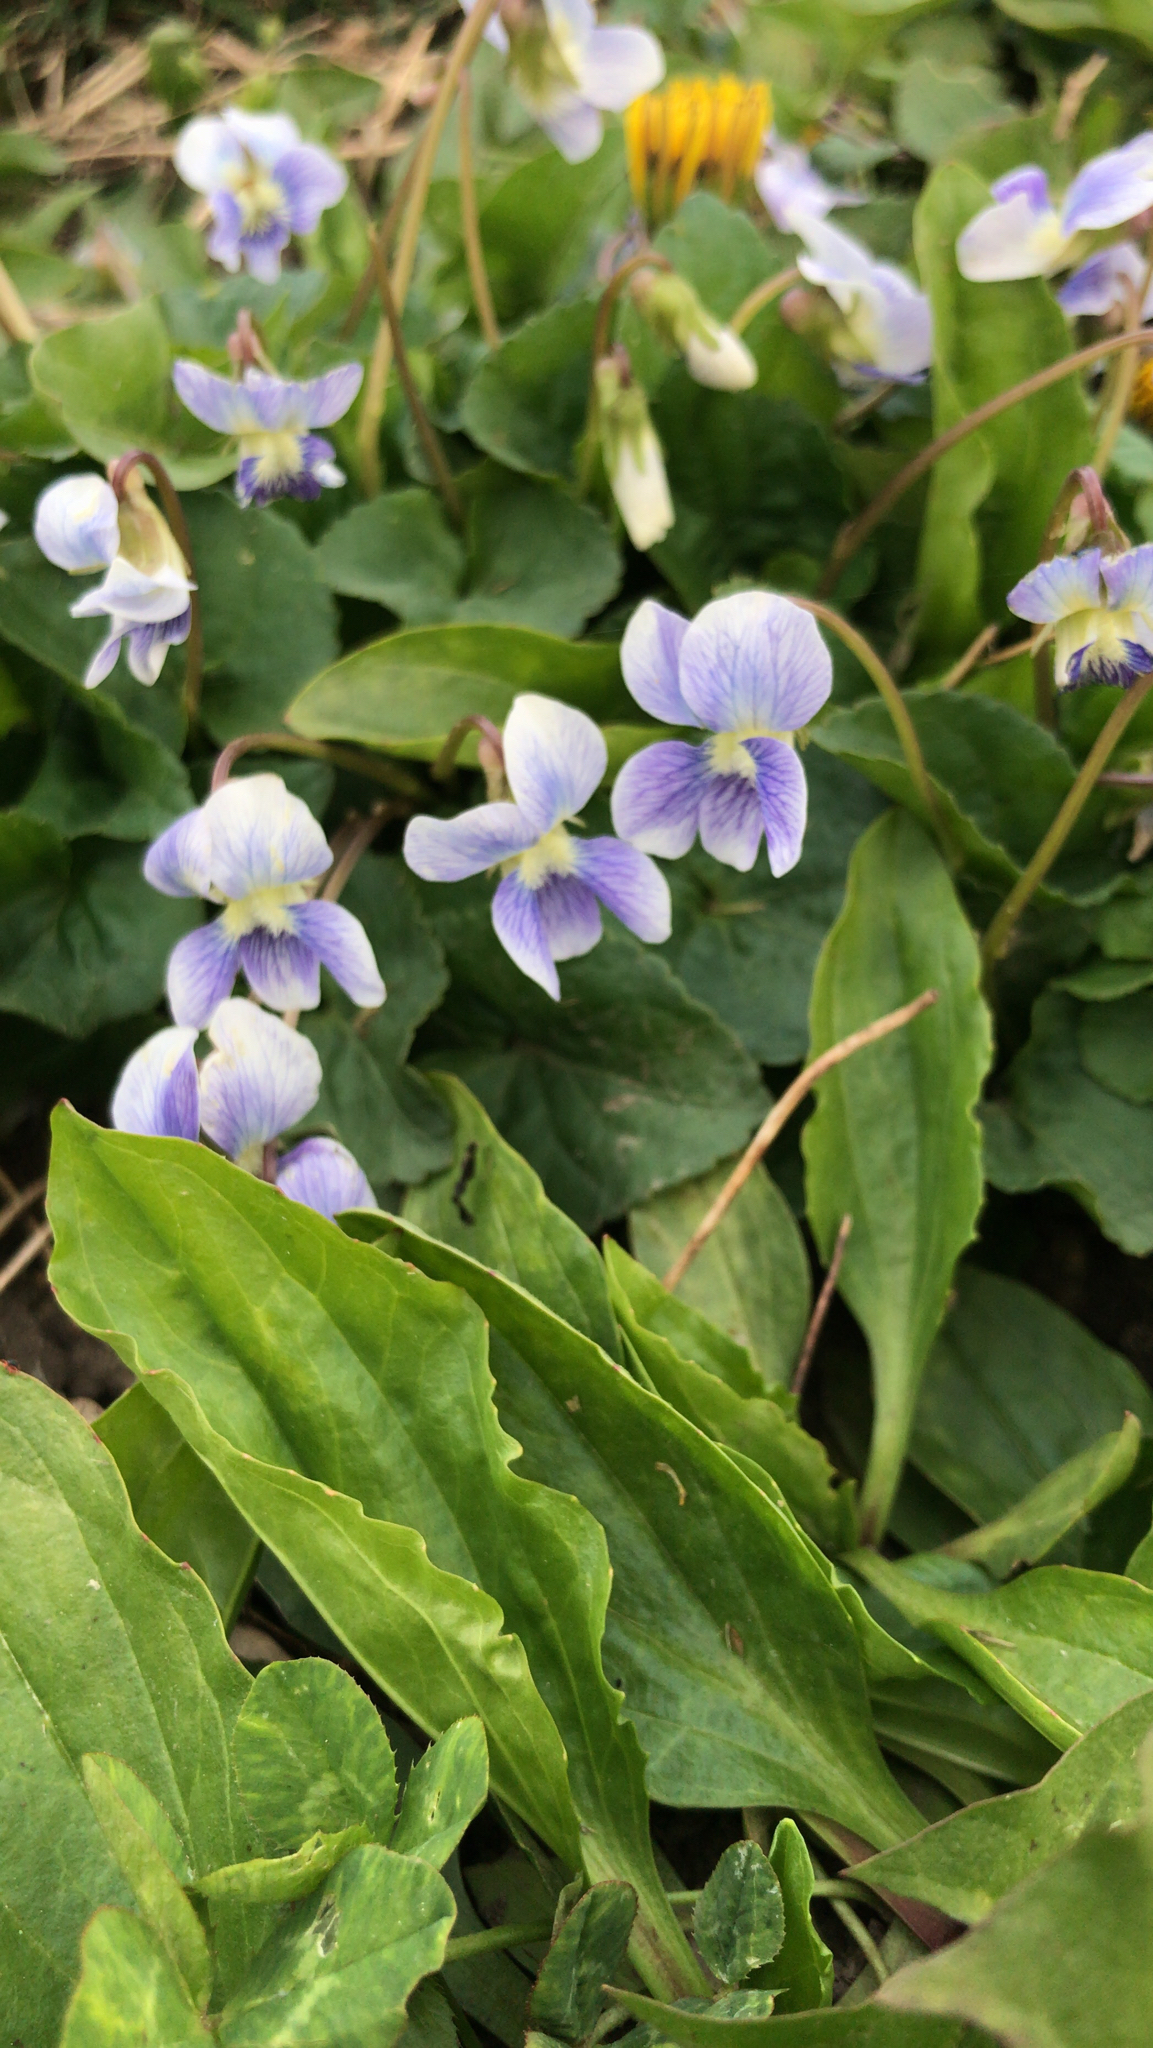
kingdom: Plantae
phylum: Tracheophyta
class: Magnoliopsida
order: Malpighiales
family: Violaceae
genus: Viola
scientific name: Viola sororia
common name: Dooryard violet
